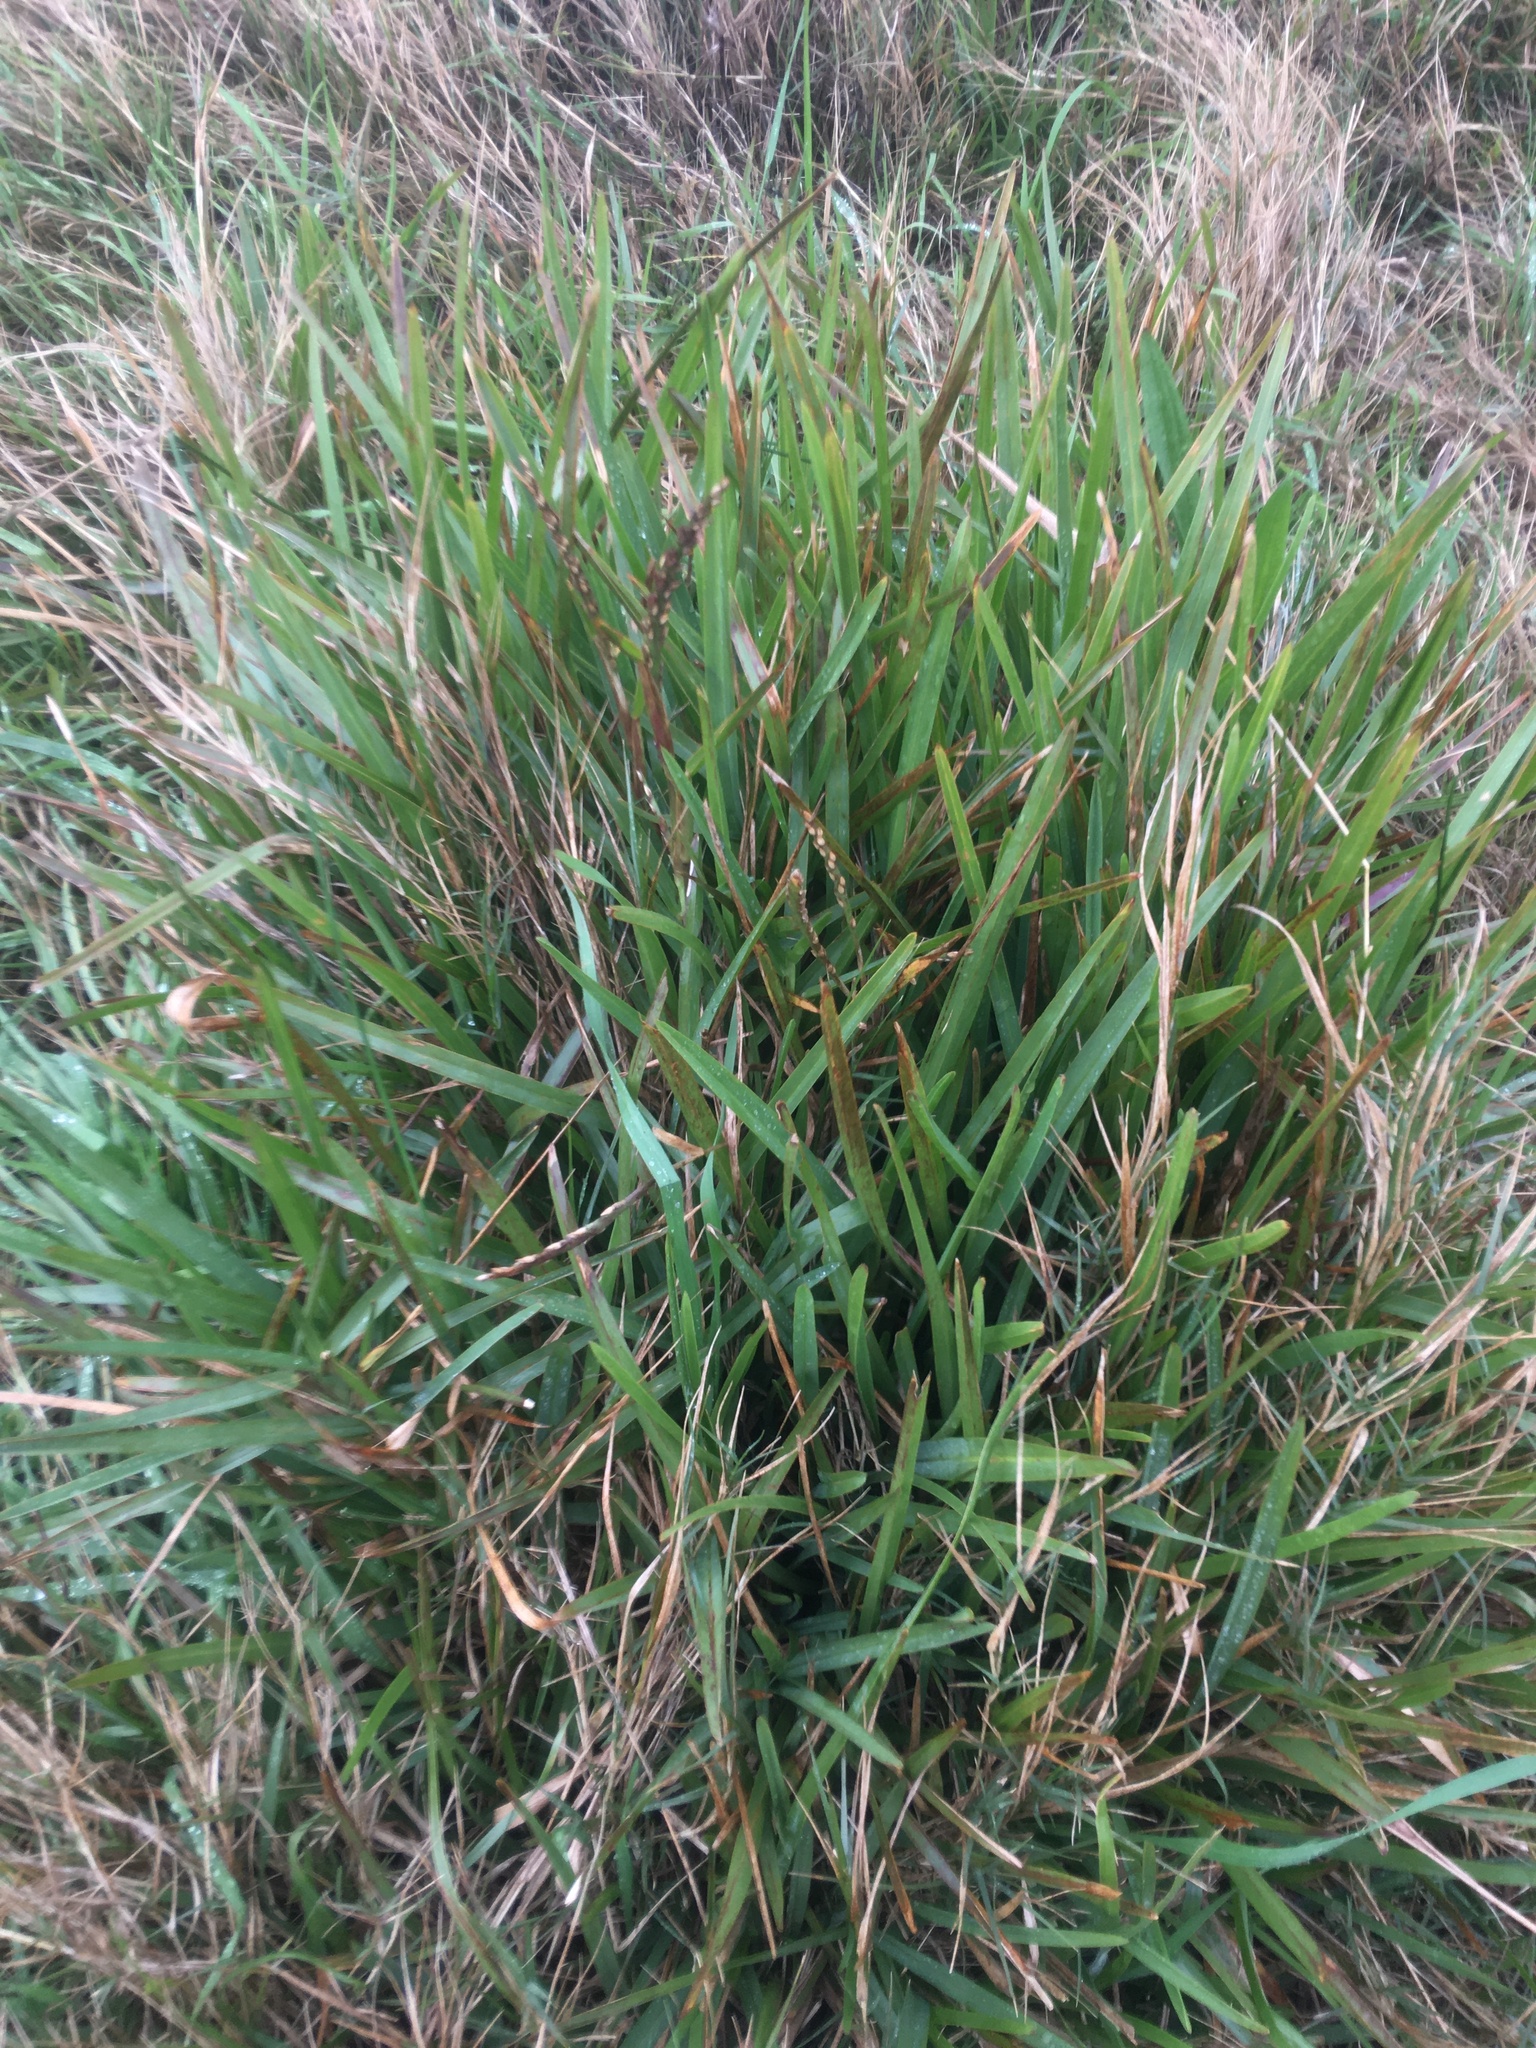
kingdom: Plantae
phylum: Tracheophyta
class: Liliopsida
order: Poales
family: Poaceae
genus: Stenotaphrum
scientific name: Stenotaphrum secundatum
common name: St. augustine grass
